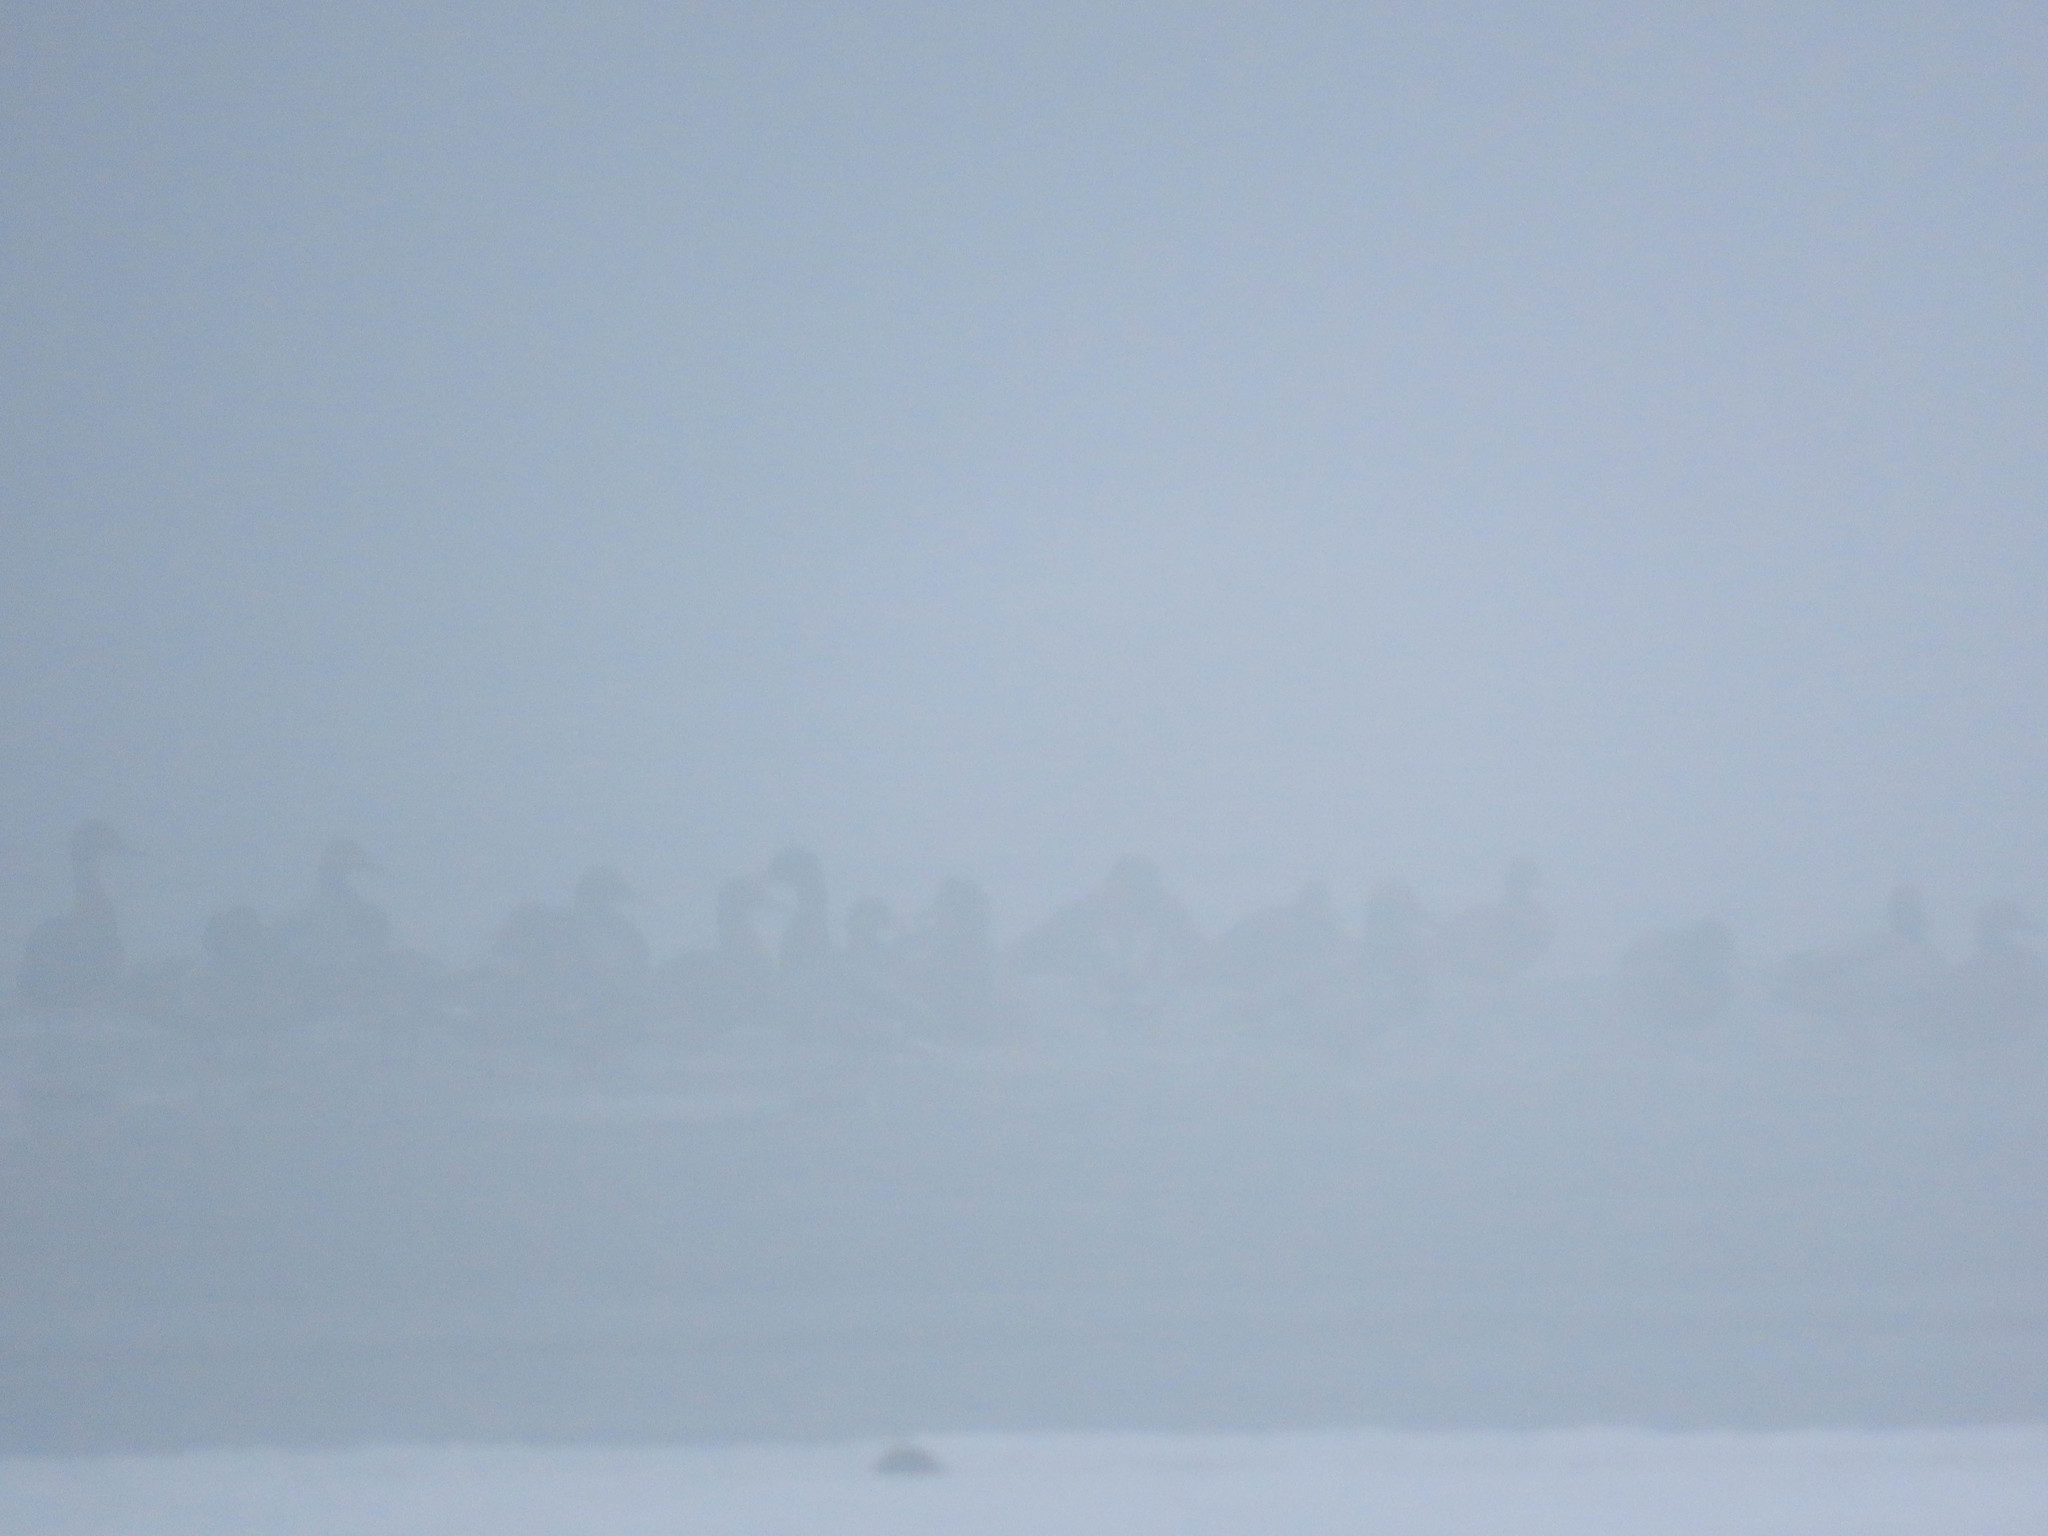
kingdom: Animalia
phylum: Chordata
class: Aves
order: Anseriformes
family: Anatidae
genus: Anas
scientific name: Anas platyrhynchos
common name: Mallard
